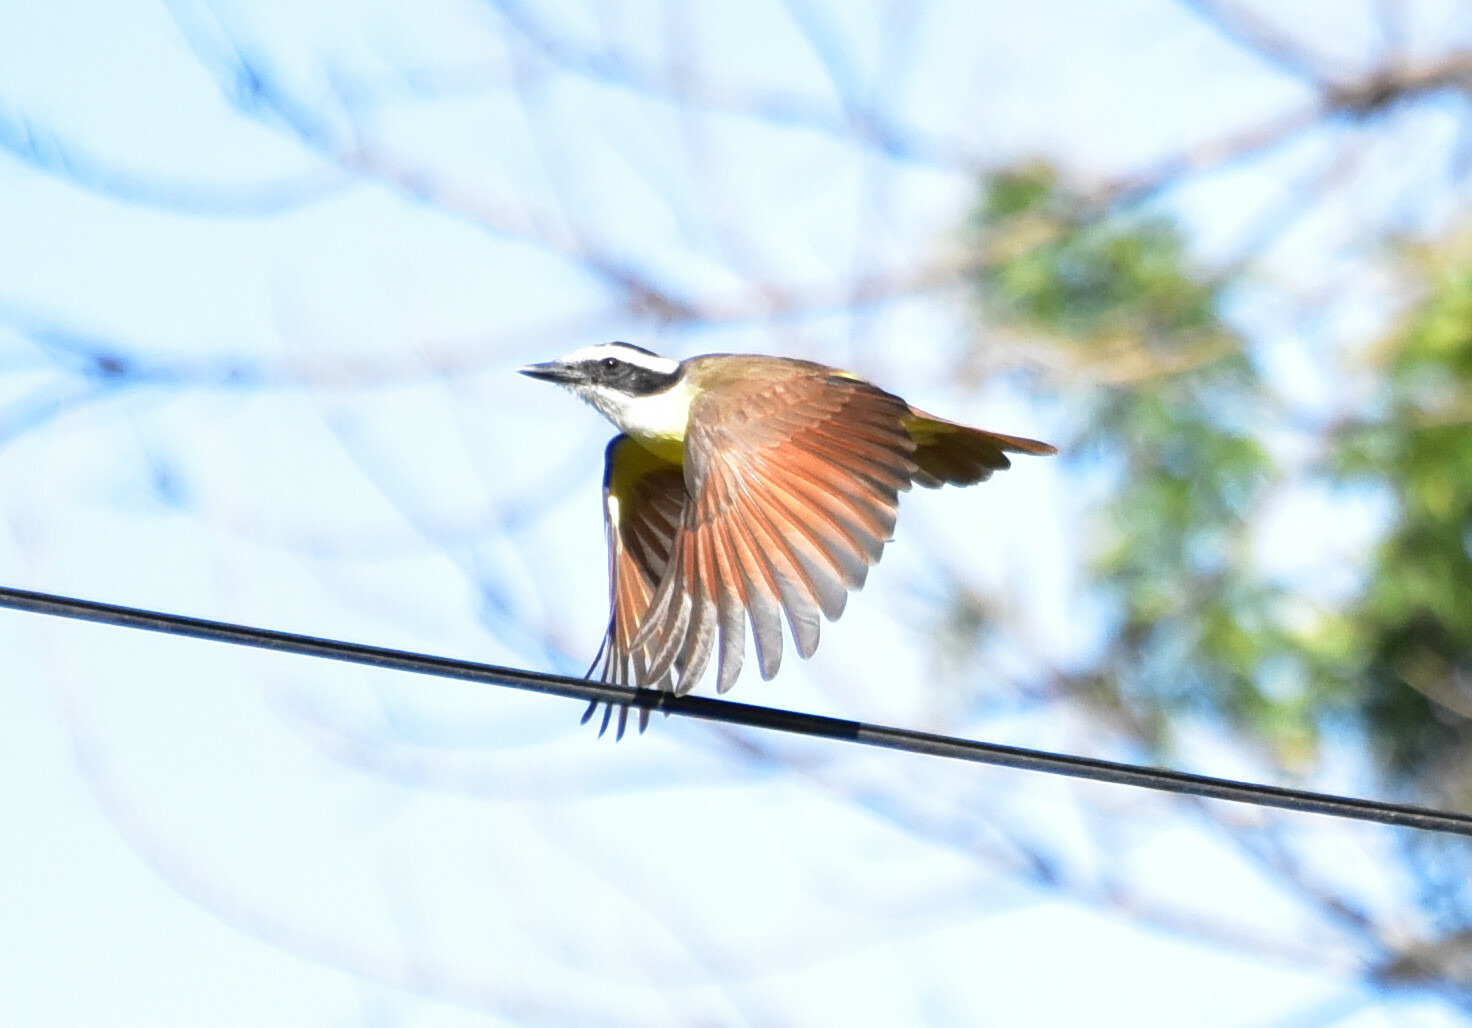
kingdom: Animalia
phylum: Chordata
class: Aves
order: Passeriformes
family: Tyrannidae
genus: Pitangus
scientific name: Pitangus sulphuratus
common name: Great kiskadee
